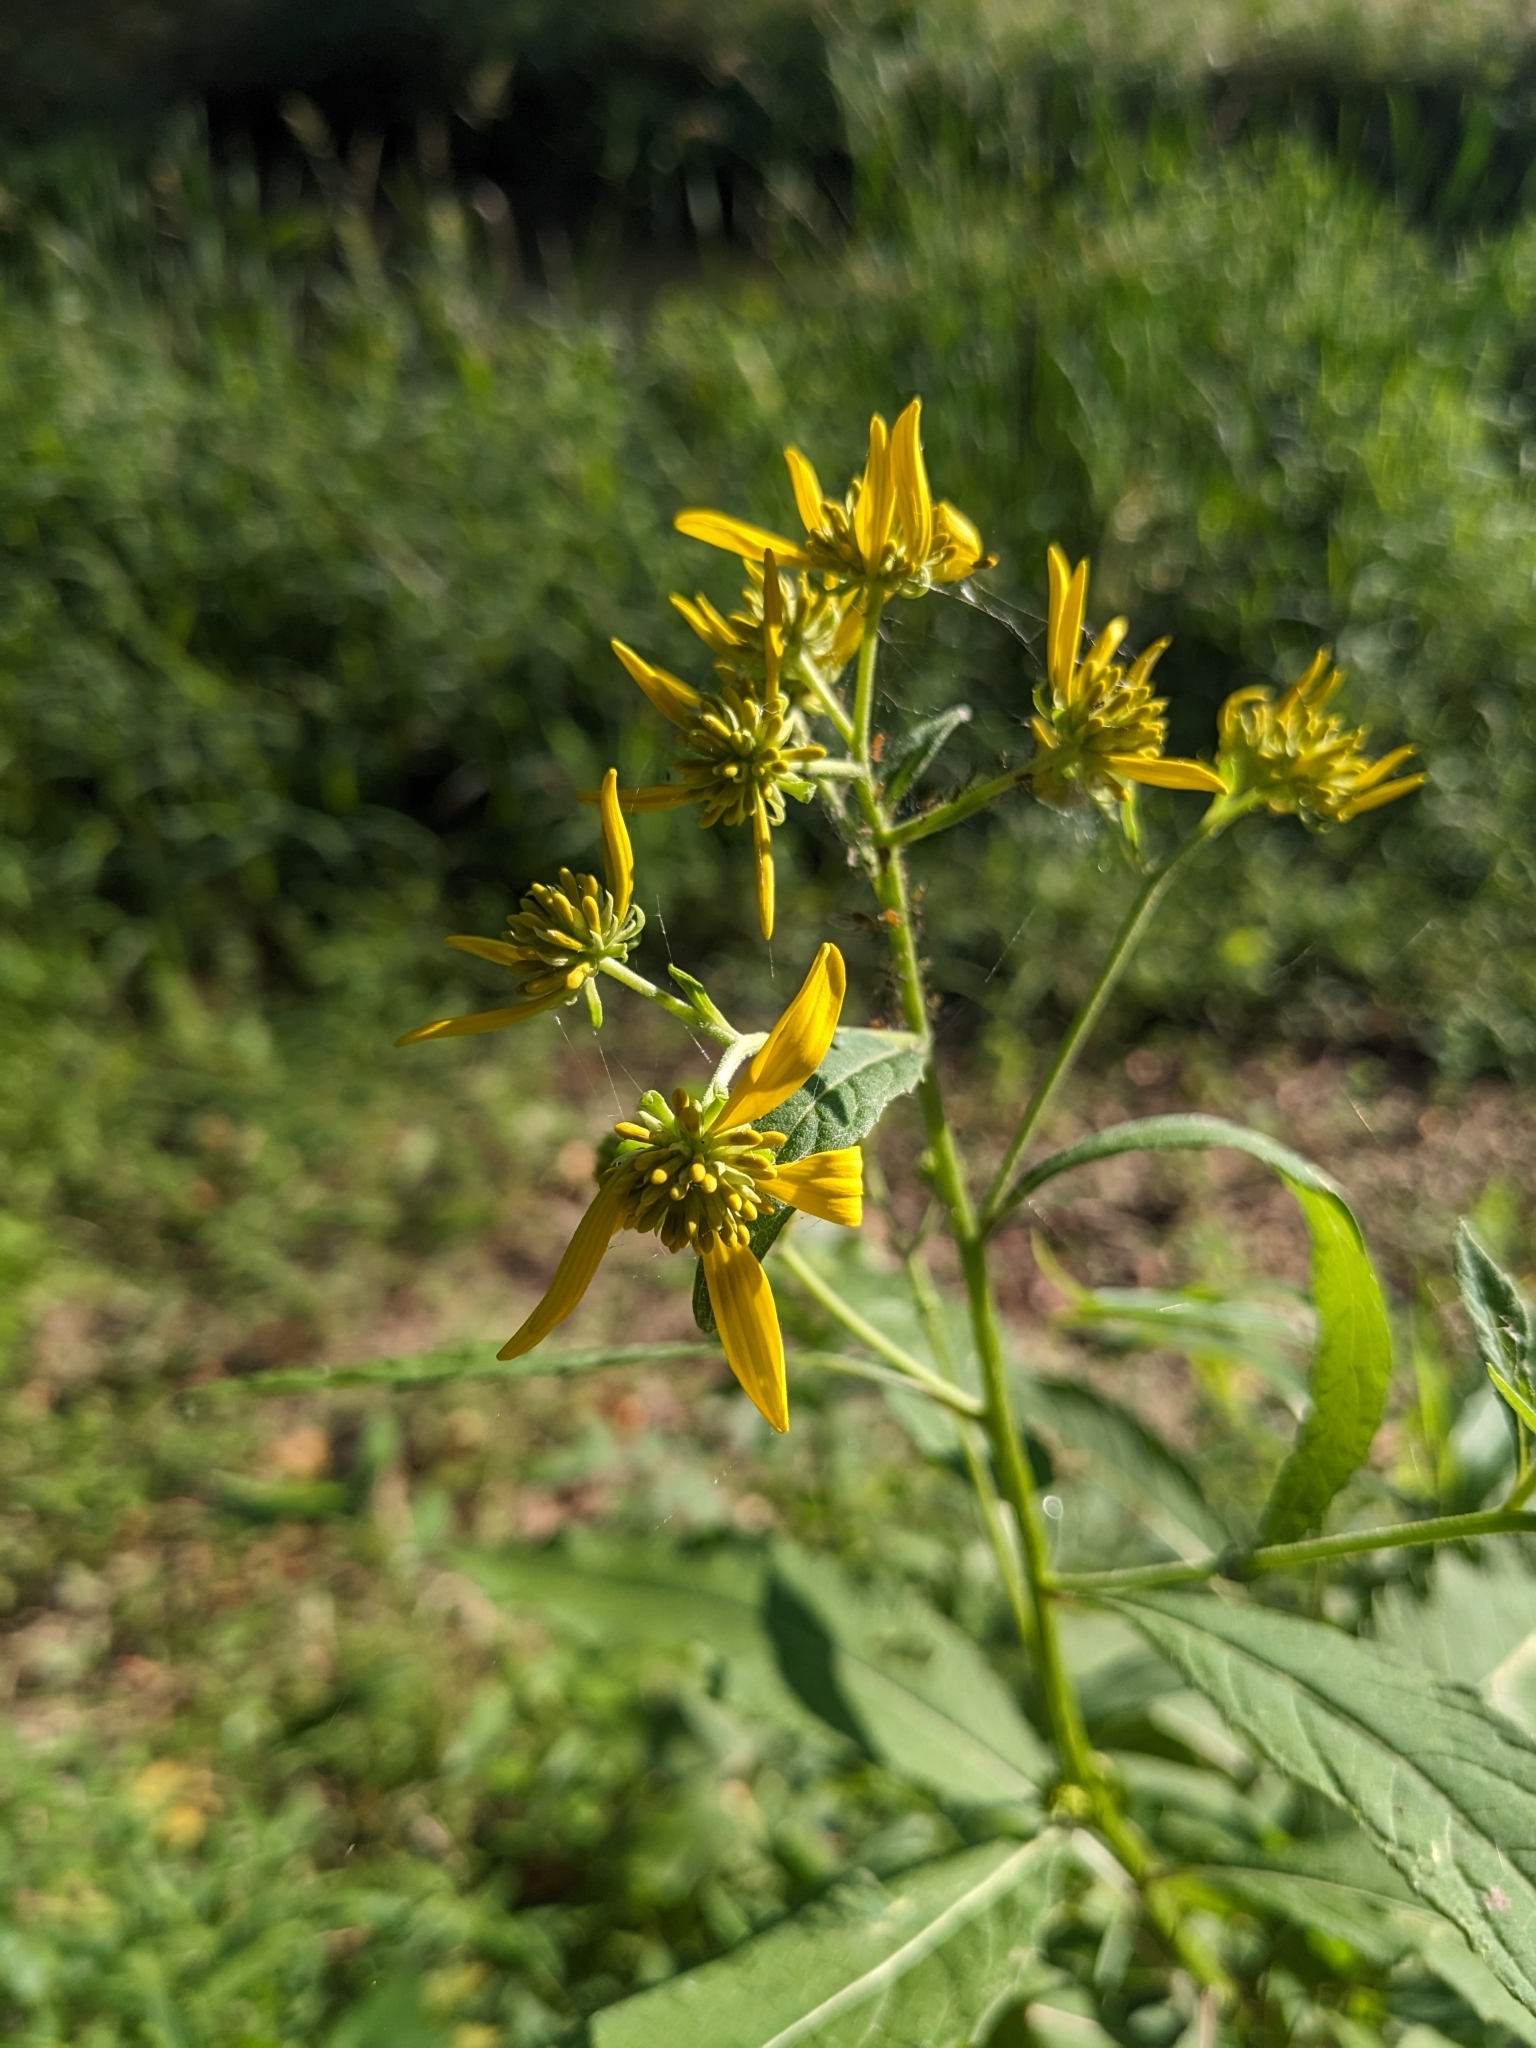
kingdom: Plantae
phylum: Tracheophyta
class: Magnoliopsida
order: Asterales
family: Asteraceae
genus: Verbesina
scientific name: Verbesina alternifolia
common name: Wingstem
